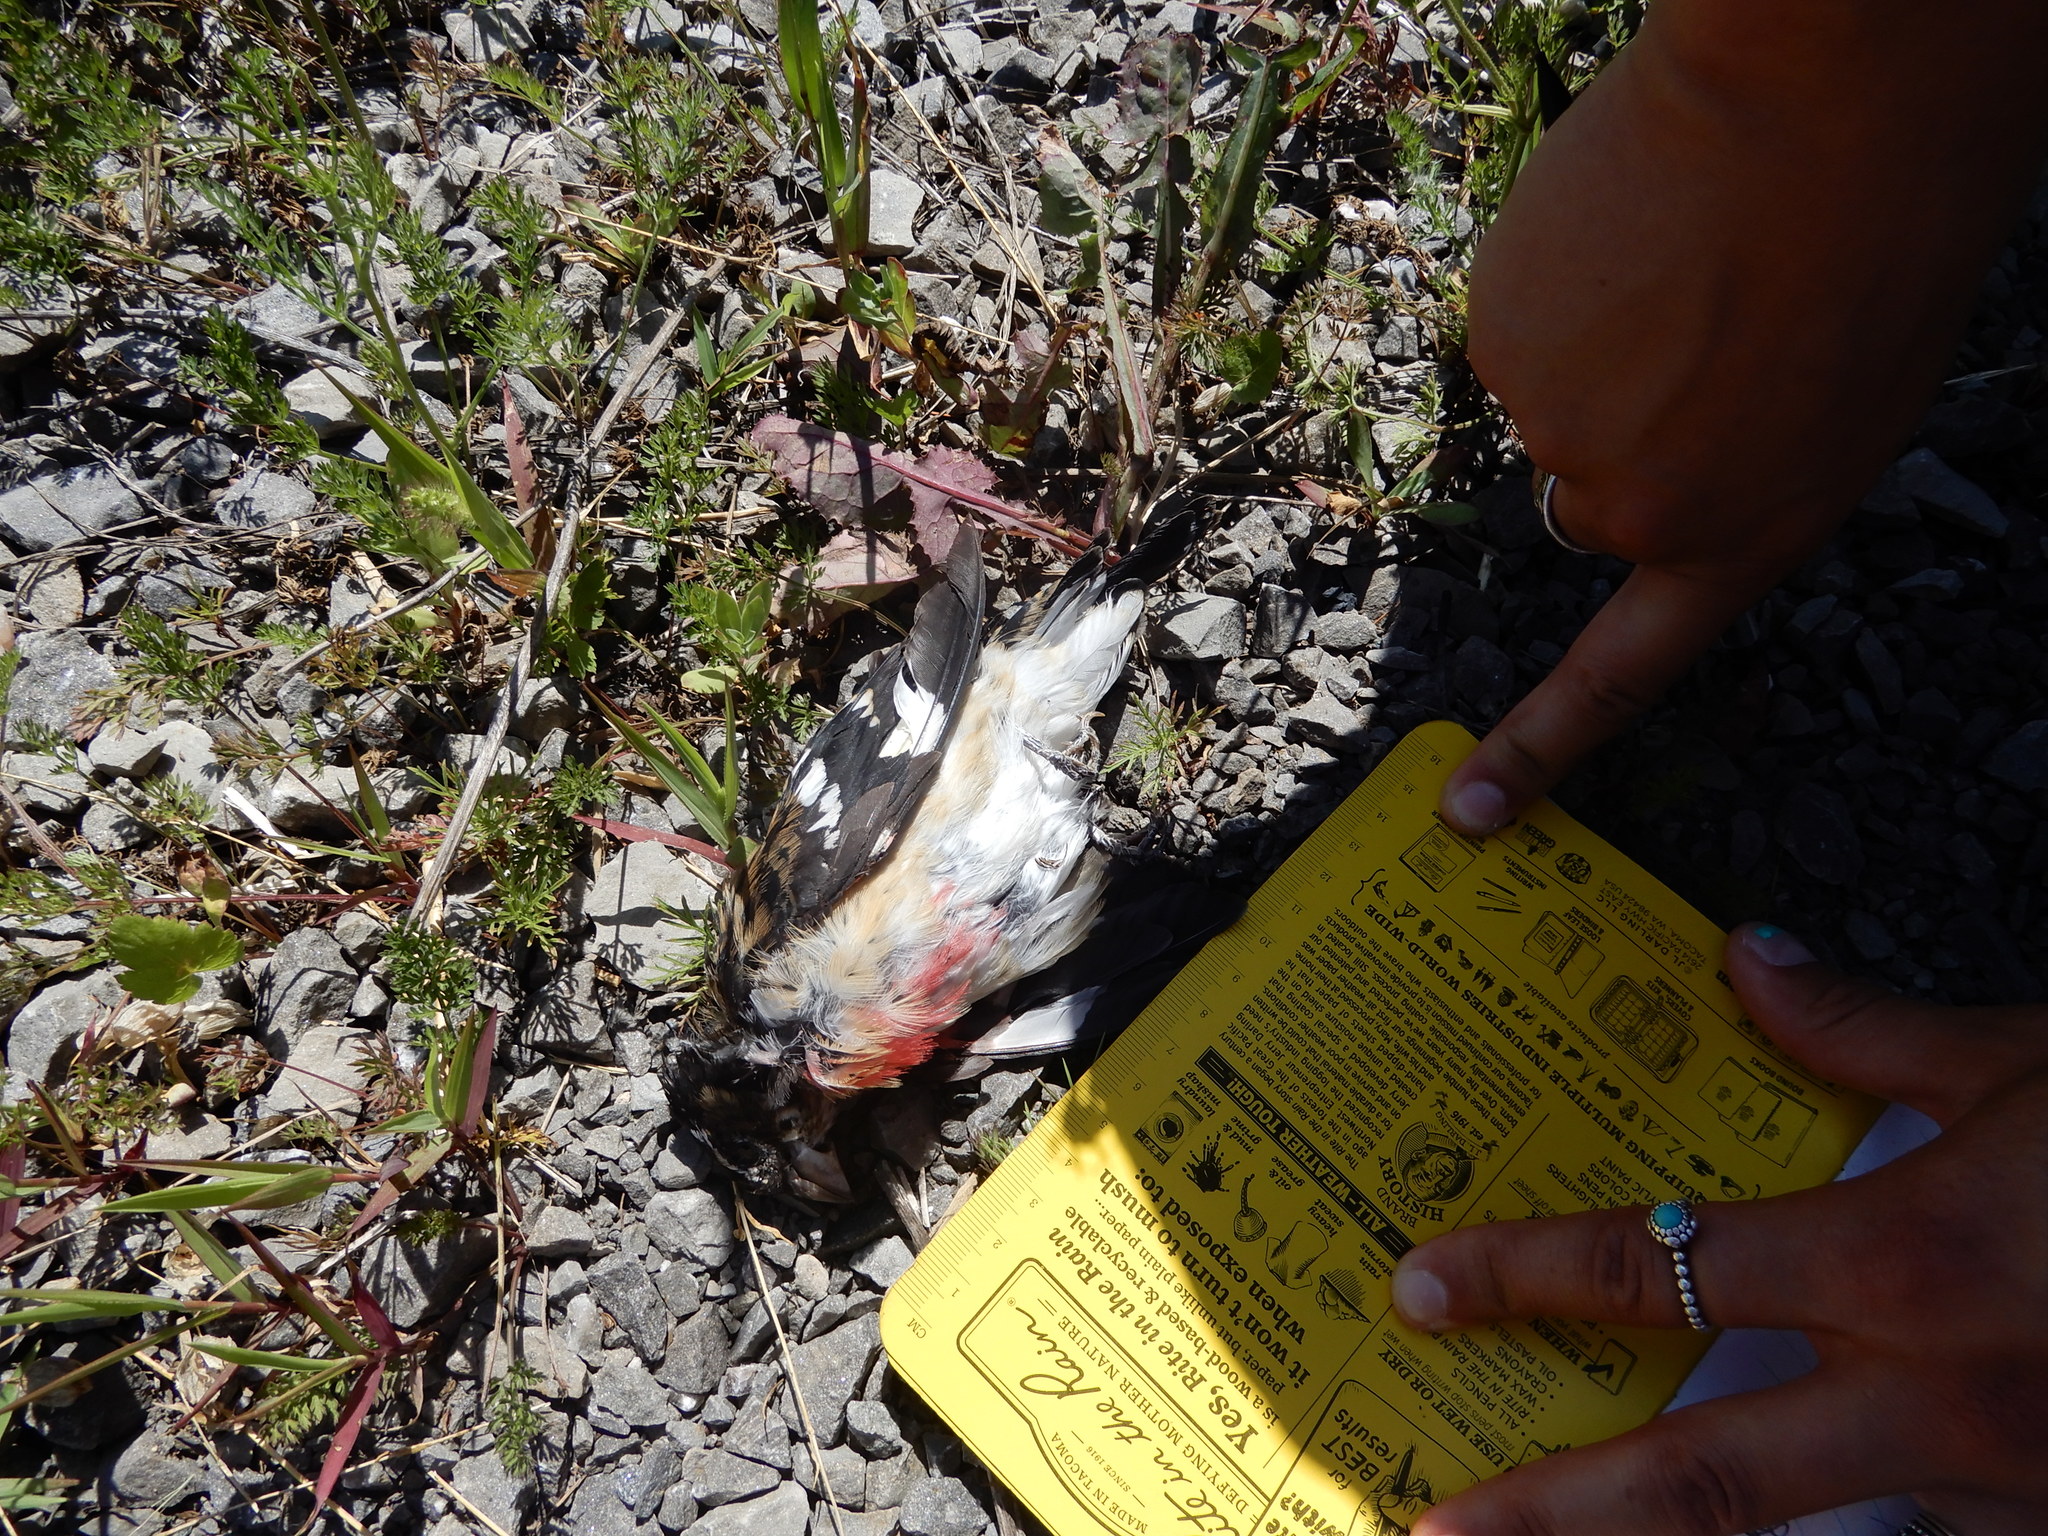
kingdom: Animalia
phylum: Chordata
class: Aves
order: Passeriformes
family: Cardinalidae
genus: Pheucticus
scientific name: Pheucticus ludovicianus
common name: Rose-breasted grosbeak
